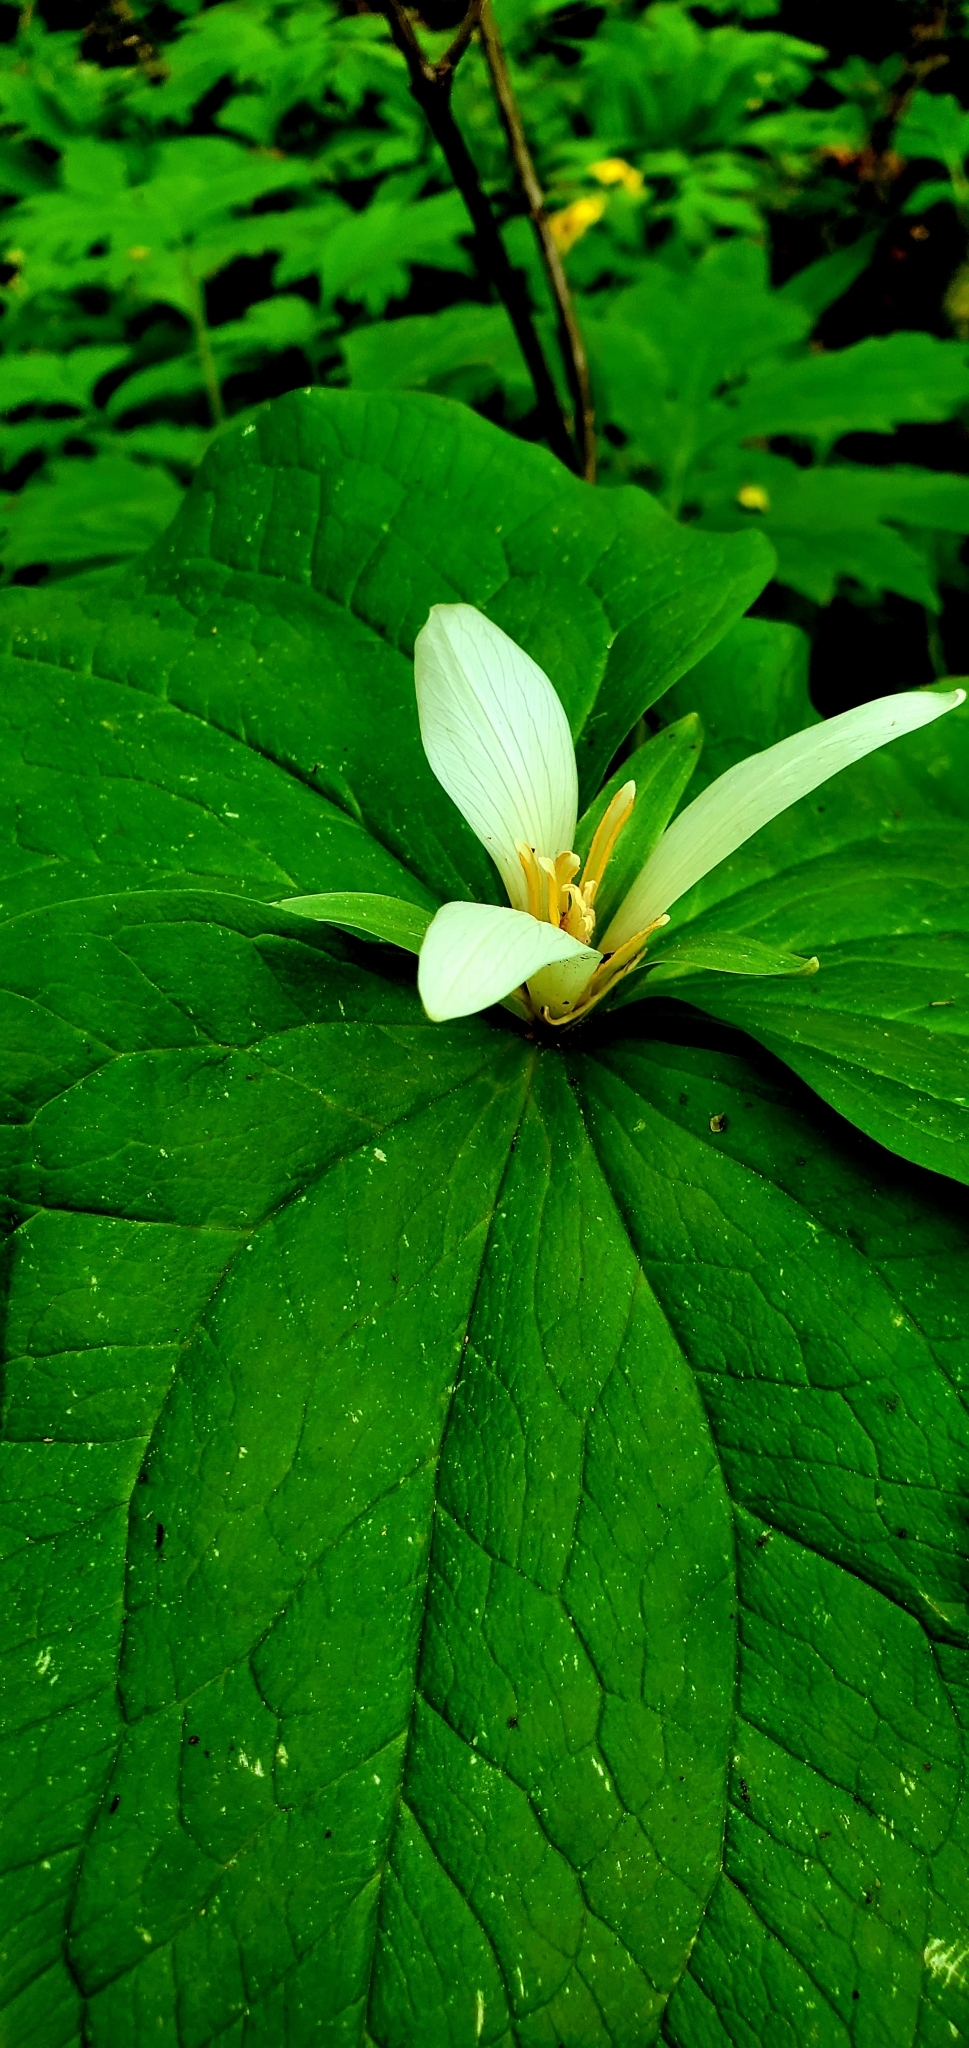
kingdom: Plantae
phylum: Tracheophyta
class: Liliopsida
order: Liliales
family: Melanthiaceae
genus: Trillium
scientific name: Trillium albidum
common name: Freeman's trillium
